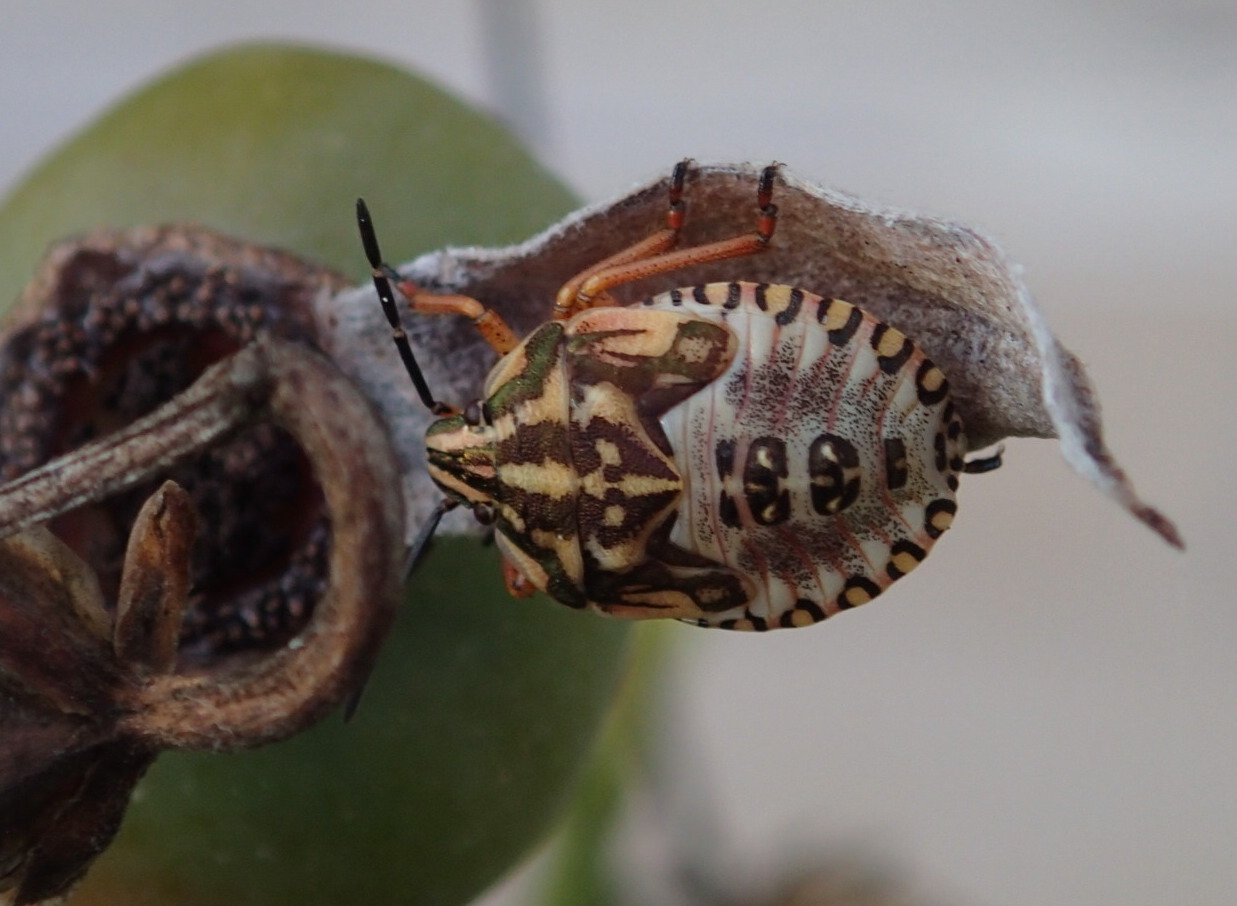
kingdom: Animalia
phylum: Arthropoda
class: Insecta
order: Hemiptera
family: Pentatomidae
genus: Carpocoris
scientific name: Carpocoris purpureipennis
